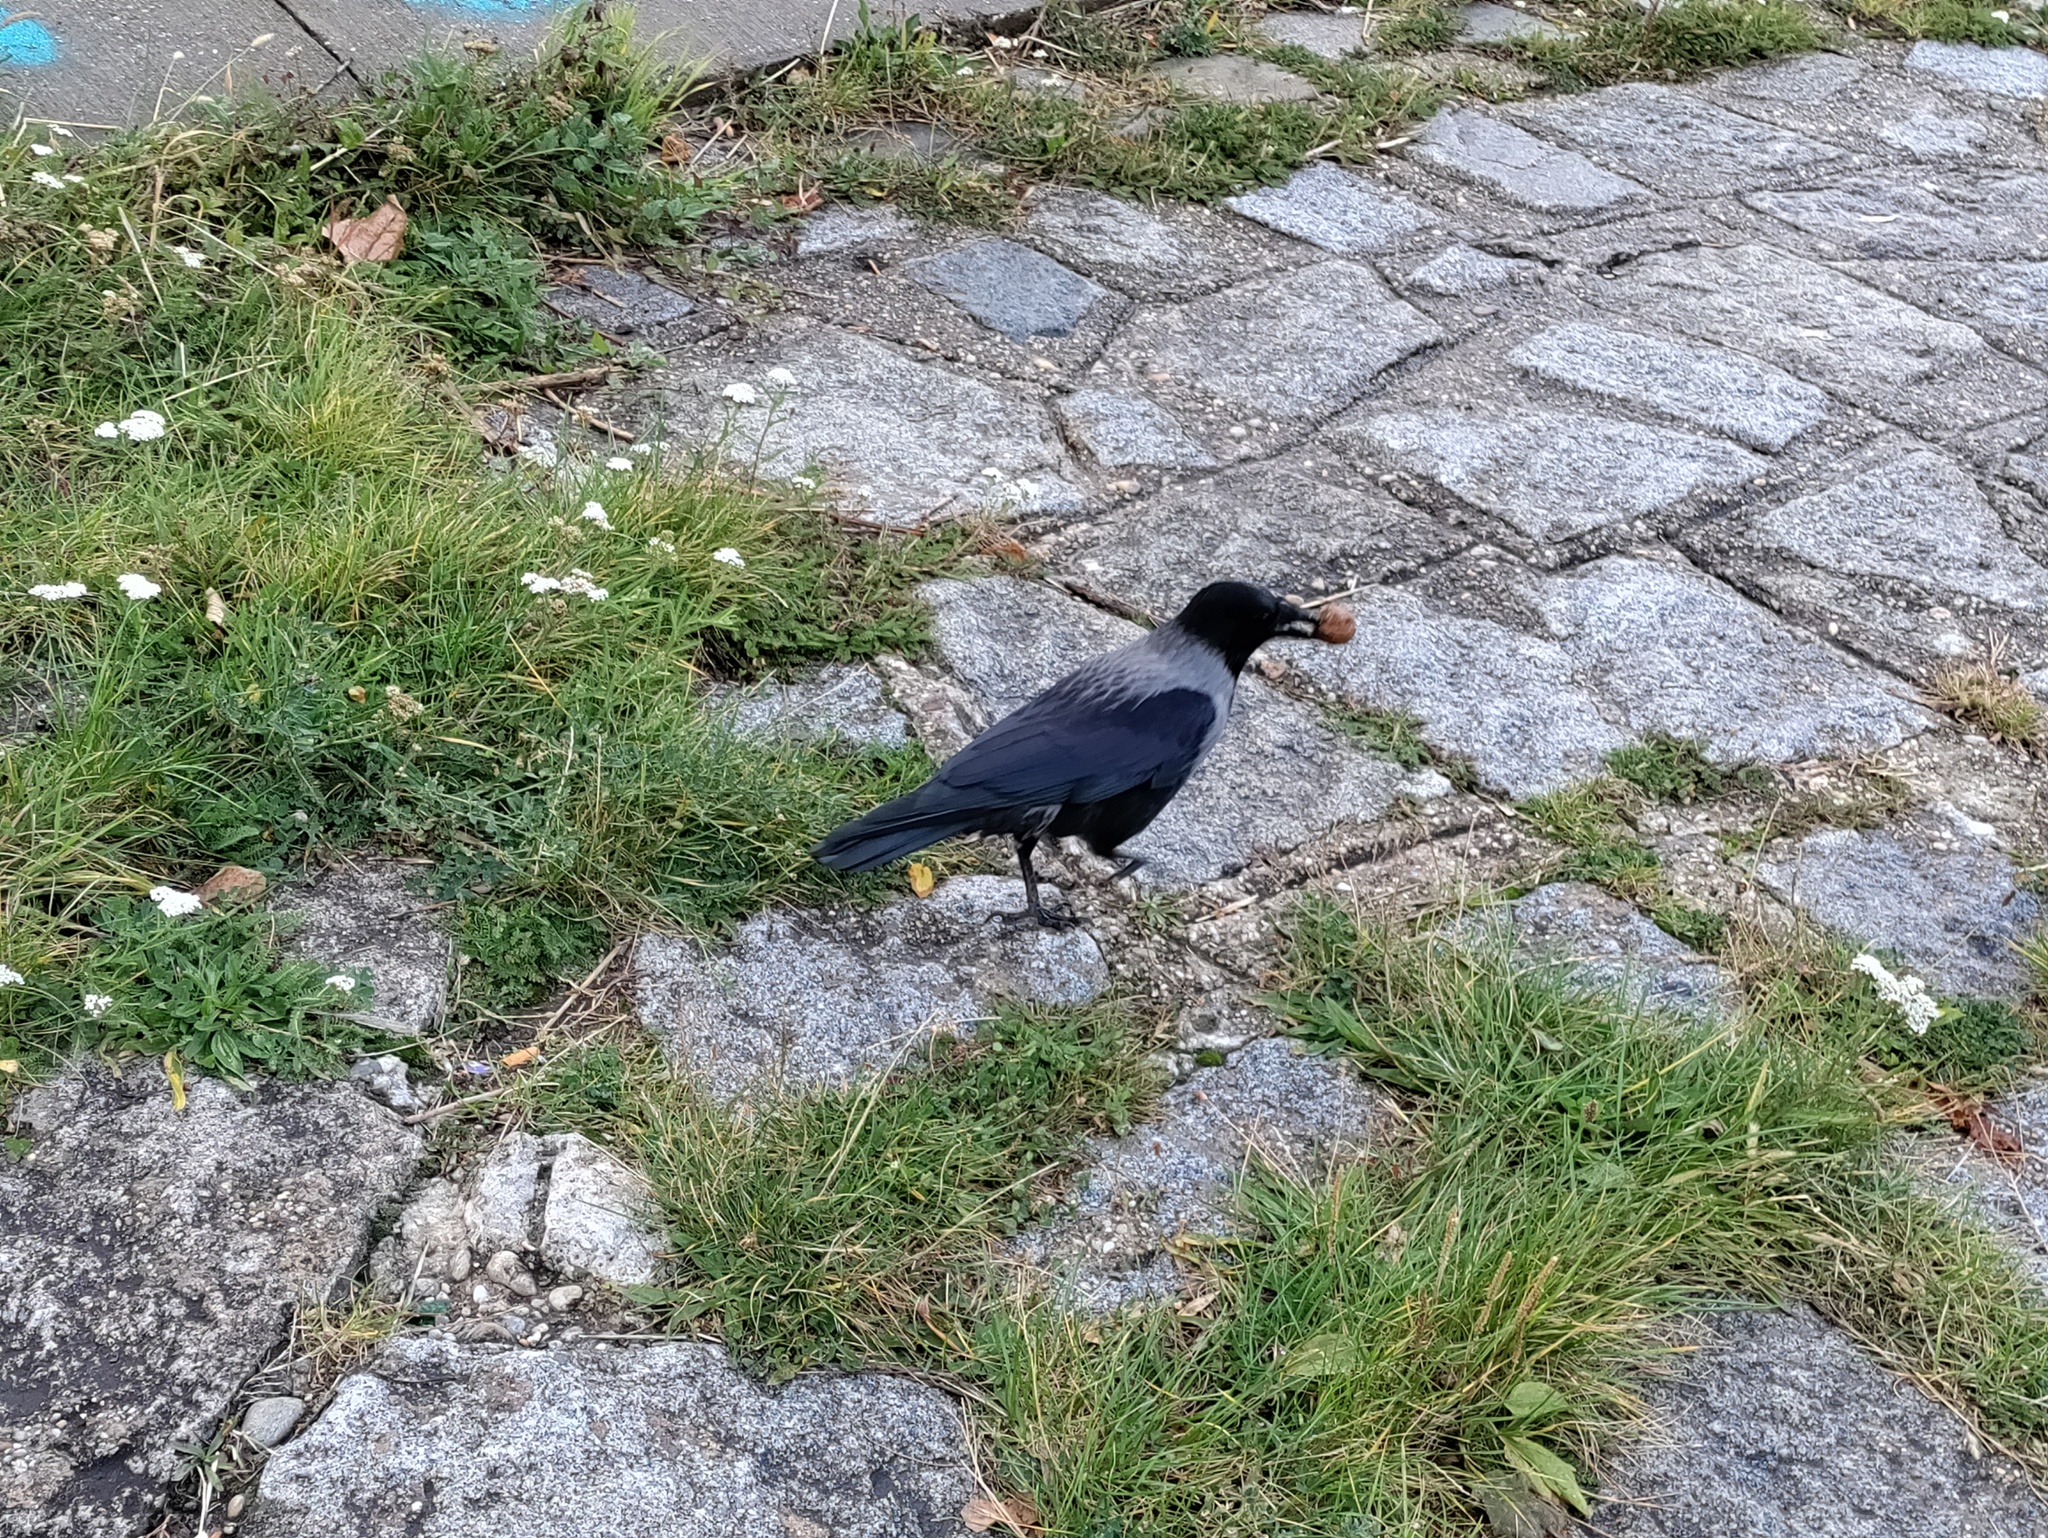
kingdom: Animalia
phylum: Chordata
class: Aves
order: Passeriformes
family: Corvidae
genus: Corvus
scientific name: Corvus cornix
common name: Hooded crow
